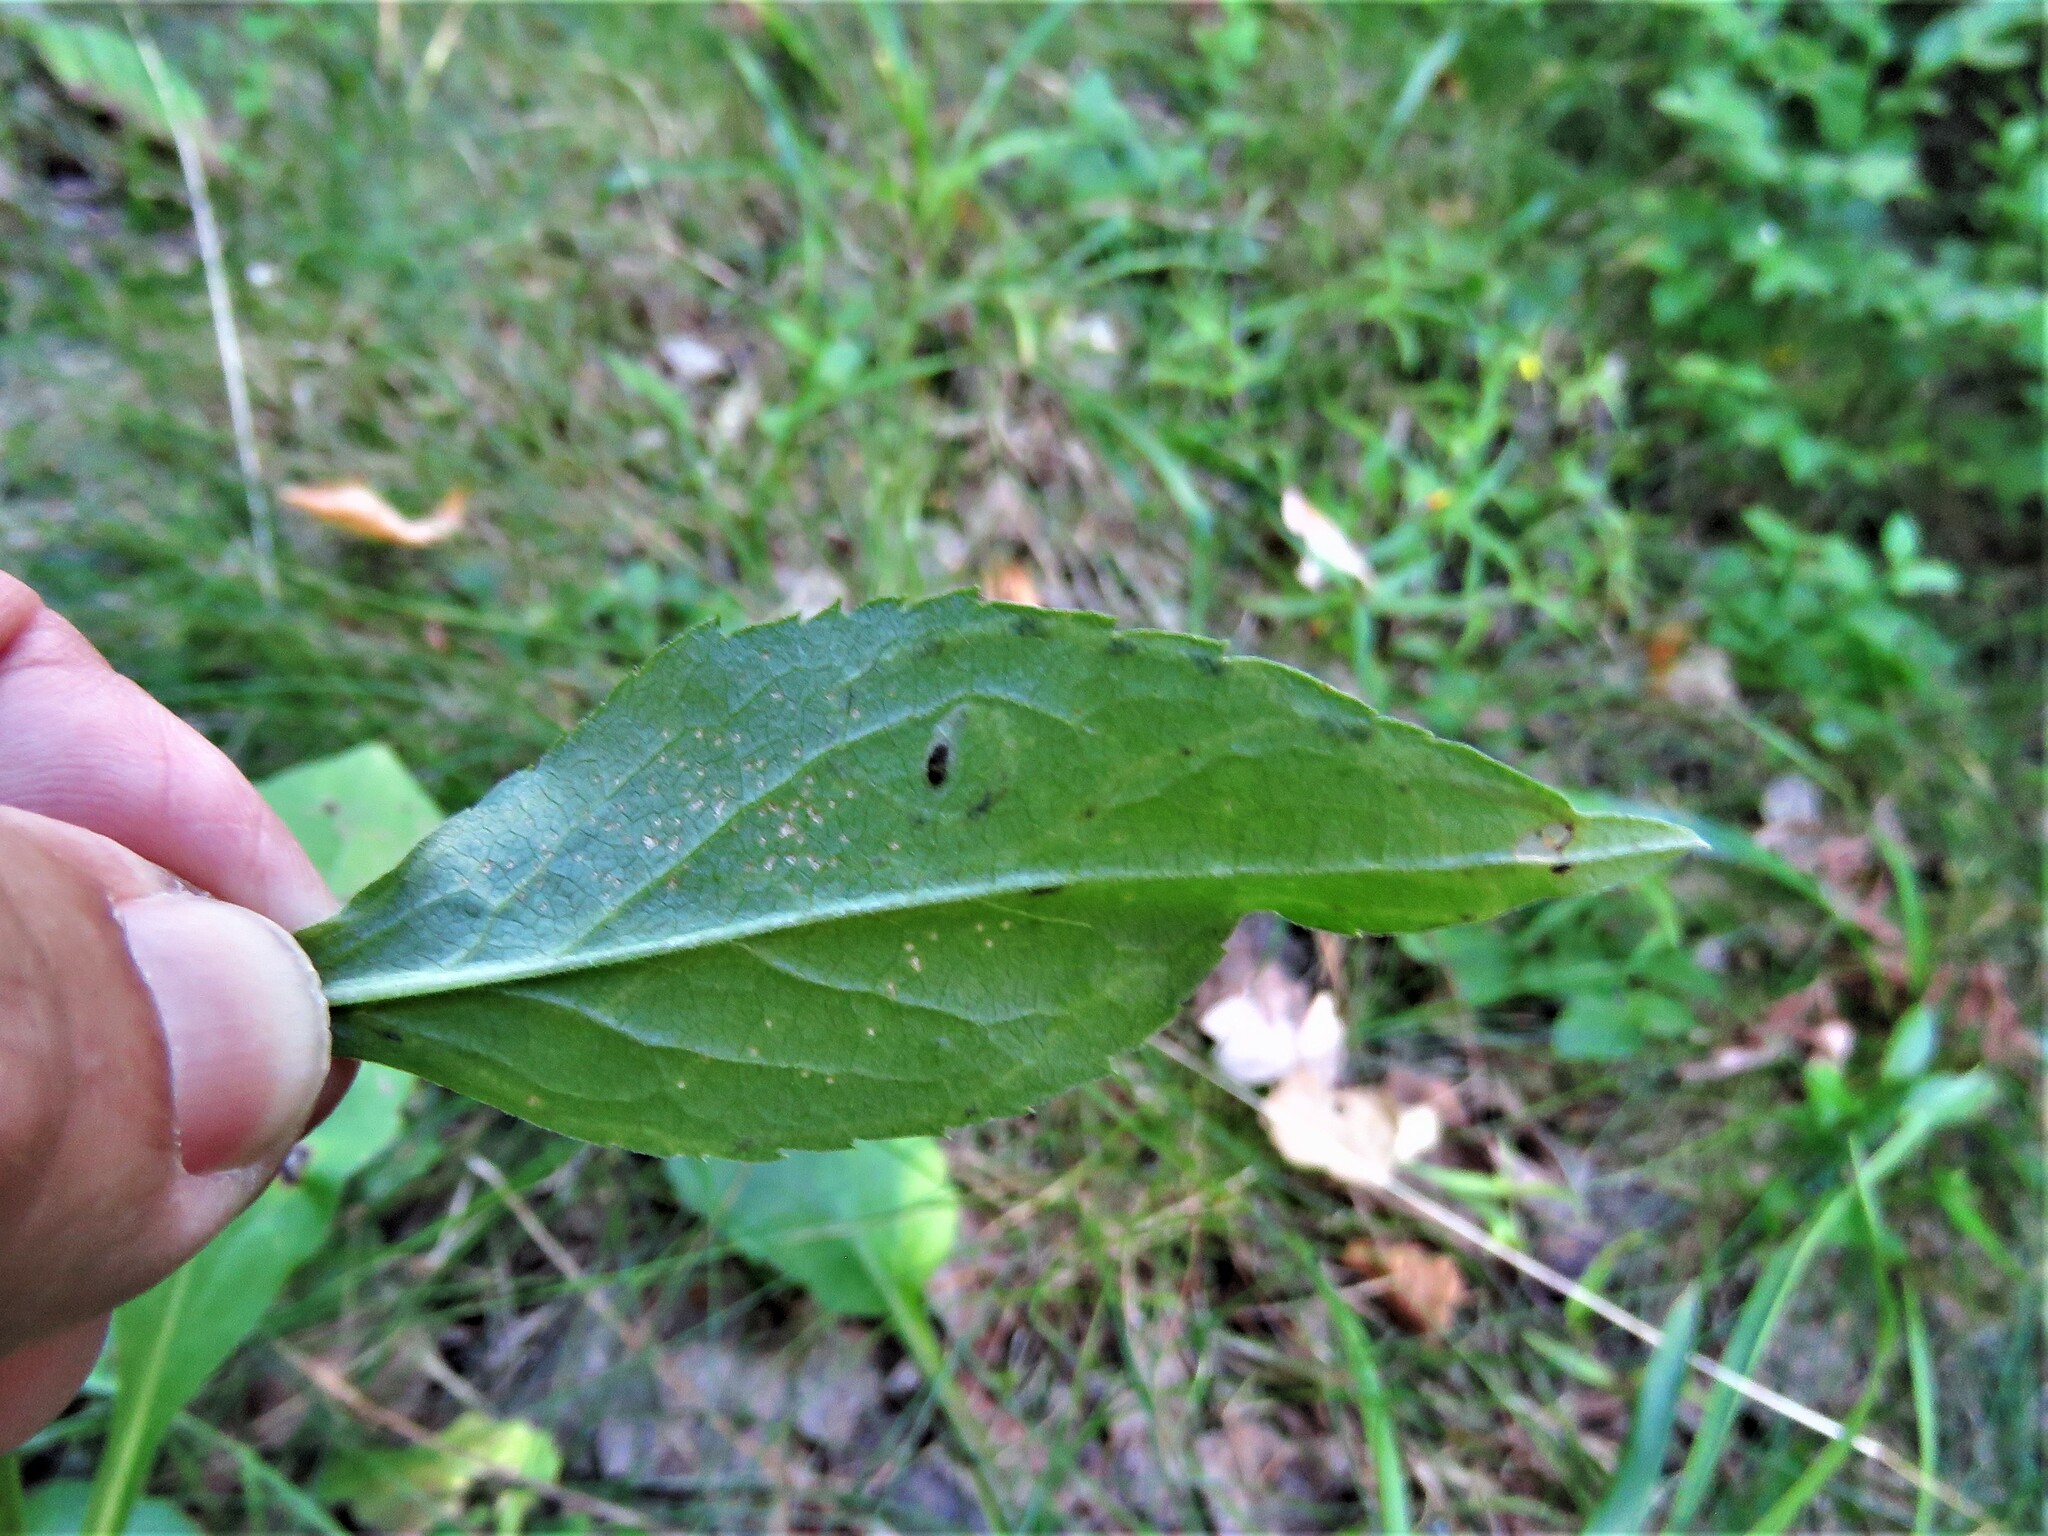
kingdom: Animalia
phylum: Arthropoda
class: Insecta
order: Diptera
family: Agromyzidae
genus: Ophiomyia
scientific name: Ophiomyia maura
